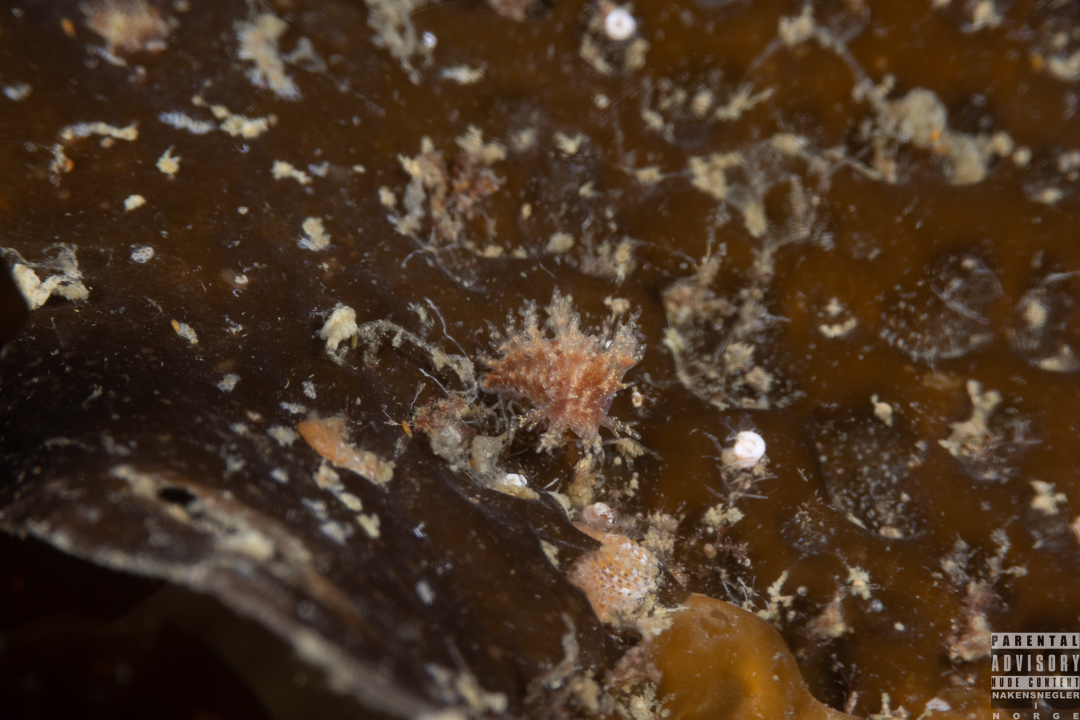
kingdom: Animalia
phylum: Mollusca
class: Gastropoda
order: Nudibranchia
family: Dendronotidae
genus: Dendronotus
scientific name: Dendronotus frondosus
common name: Bushy-backed nudibranch
